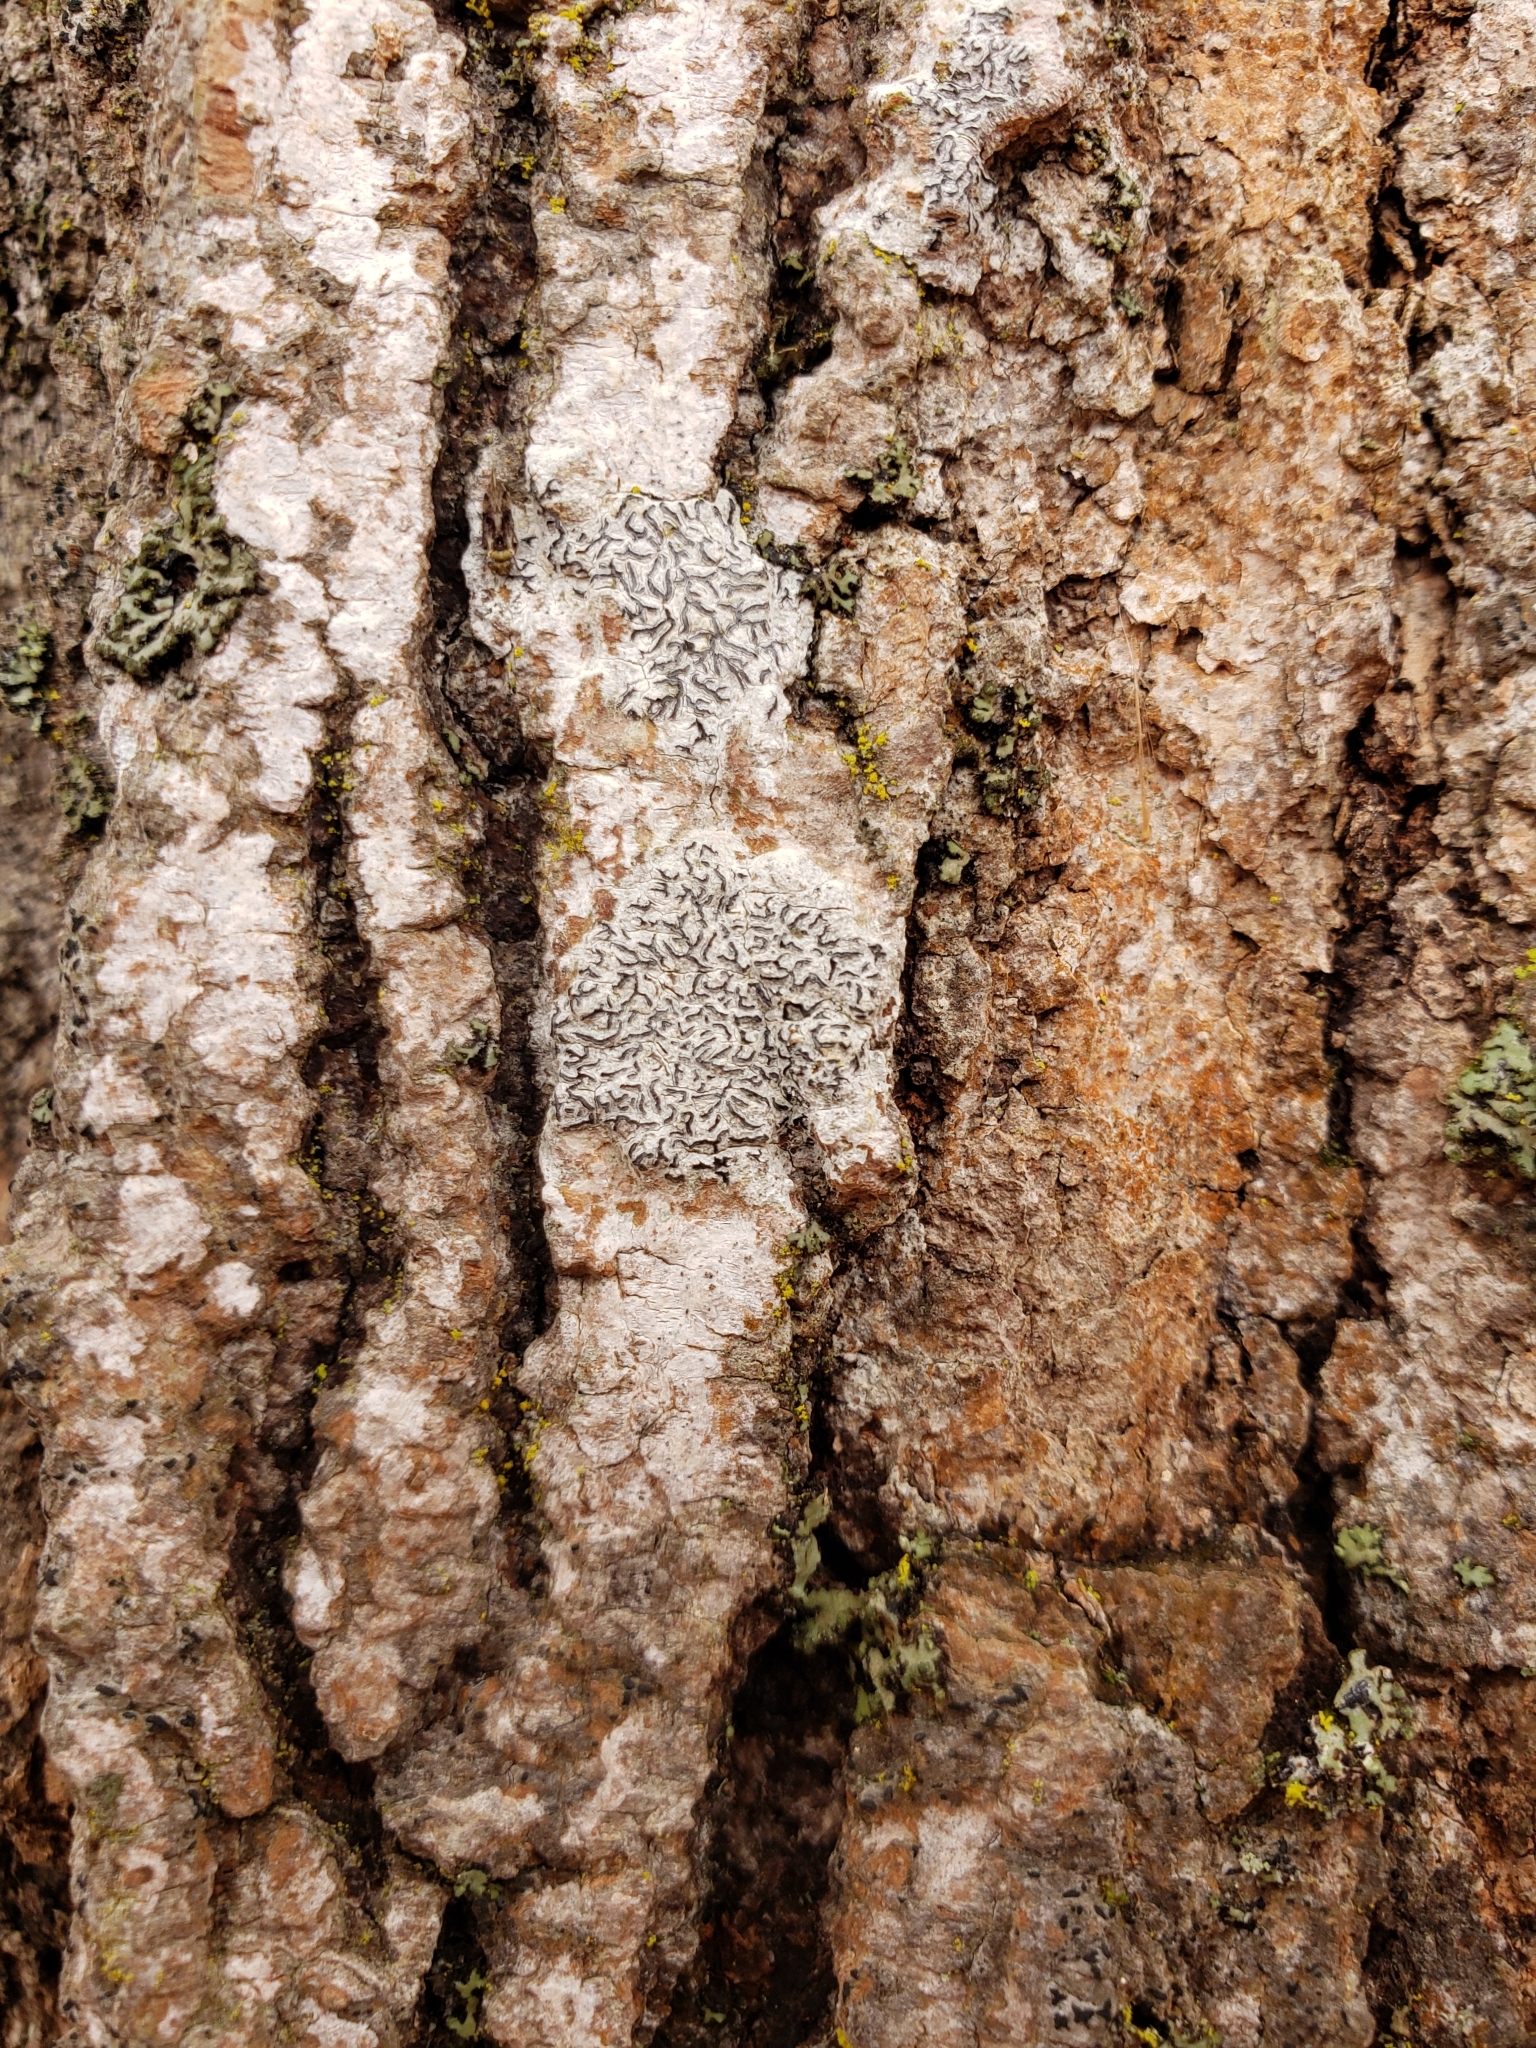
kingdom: Fungi
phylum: Ascomycota
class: Lecanoromycetes
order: Ostropales
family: Graphidaceae
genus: Graphis
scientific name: Graphis scripta
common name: Script lichen
